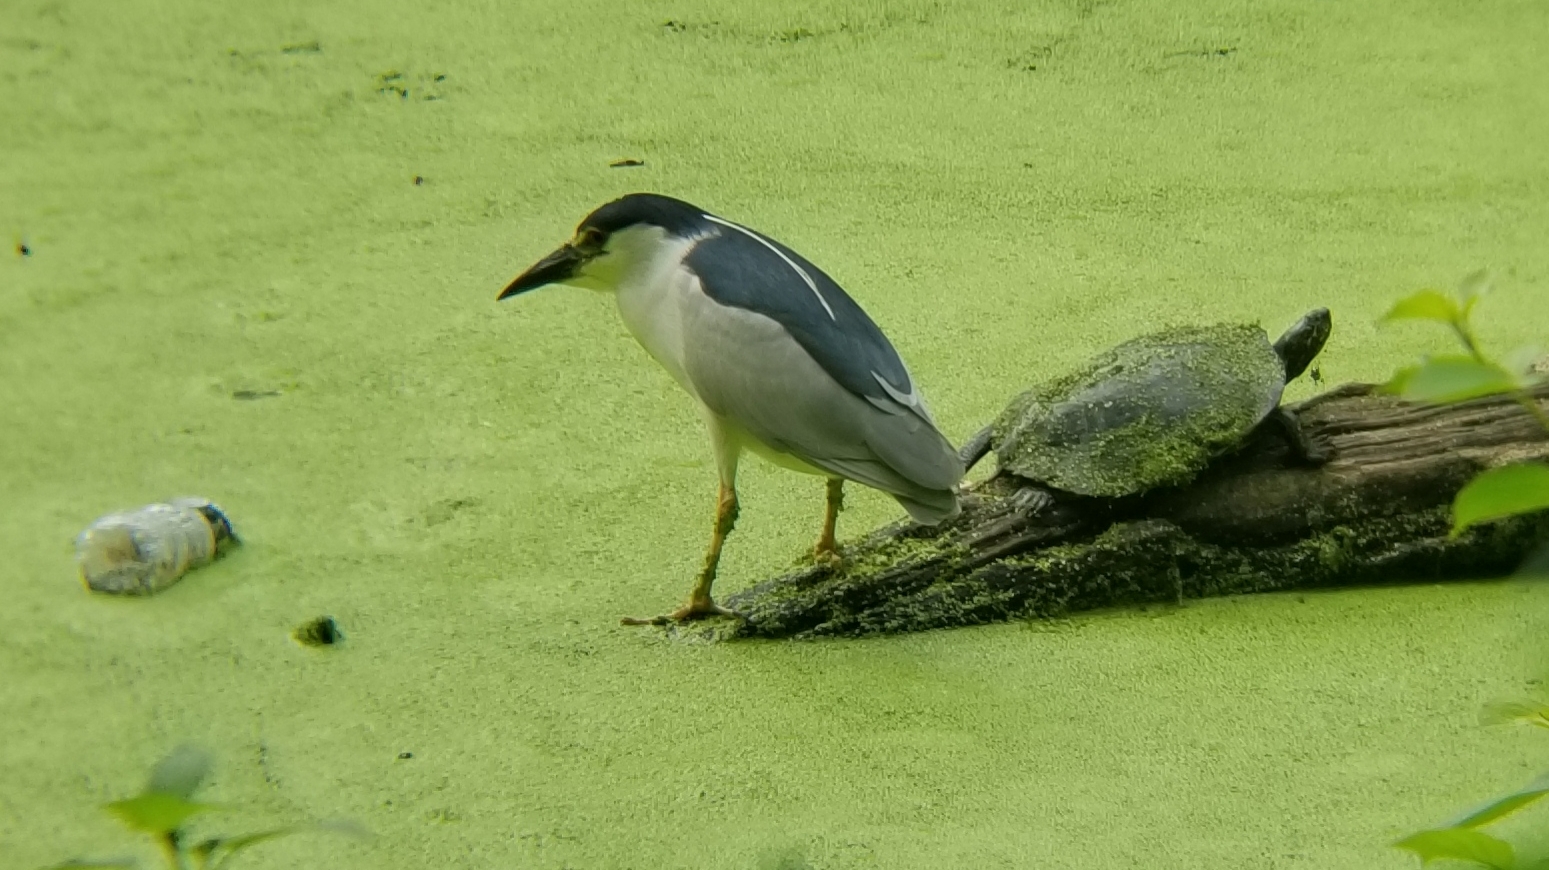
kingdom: Animalia
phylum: Chordata
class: Aves
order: Pelecaniformes
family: Ardeidae
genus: Nycticorax
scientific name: Nycticorax nycticorax
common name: Black-crowned night heron
